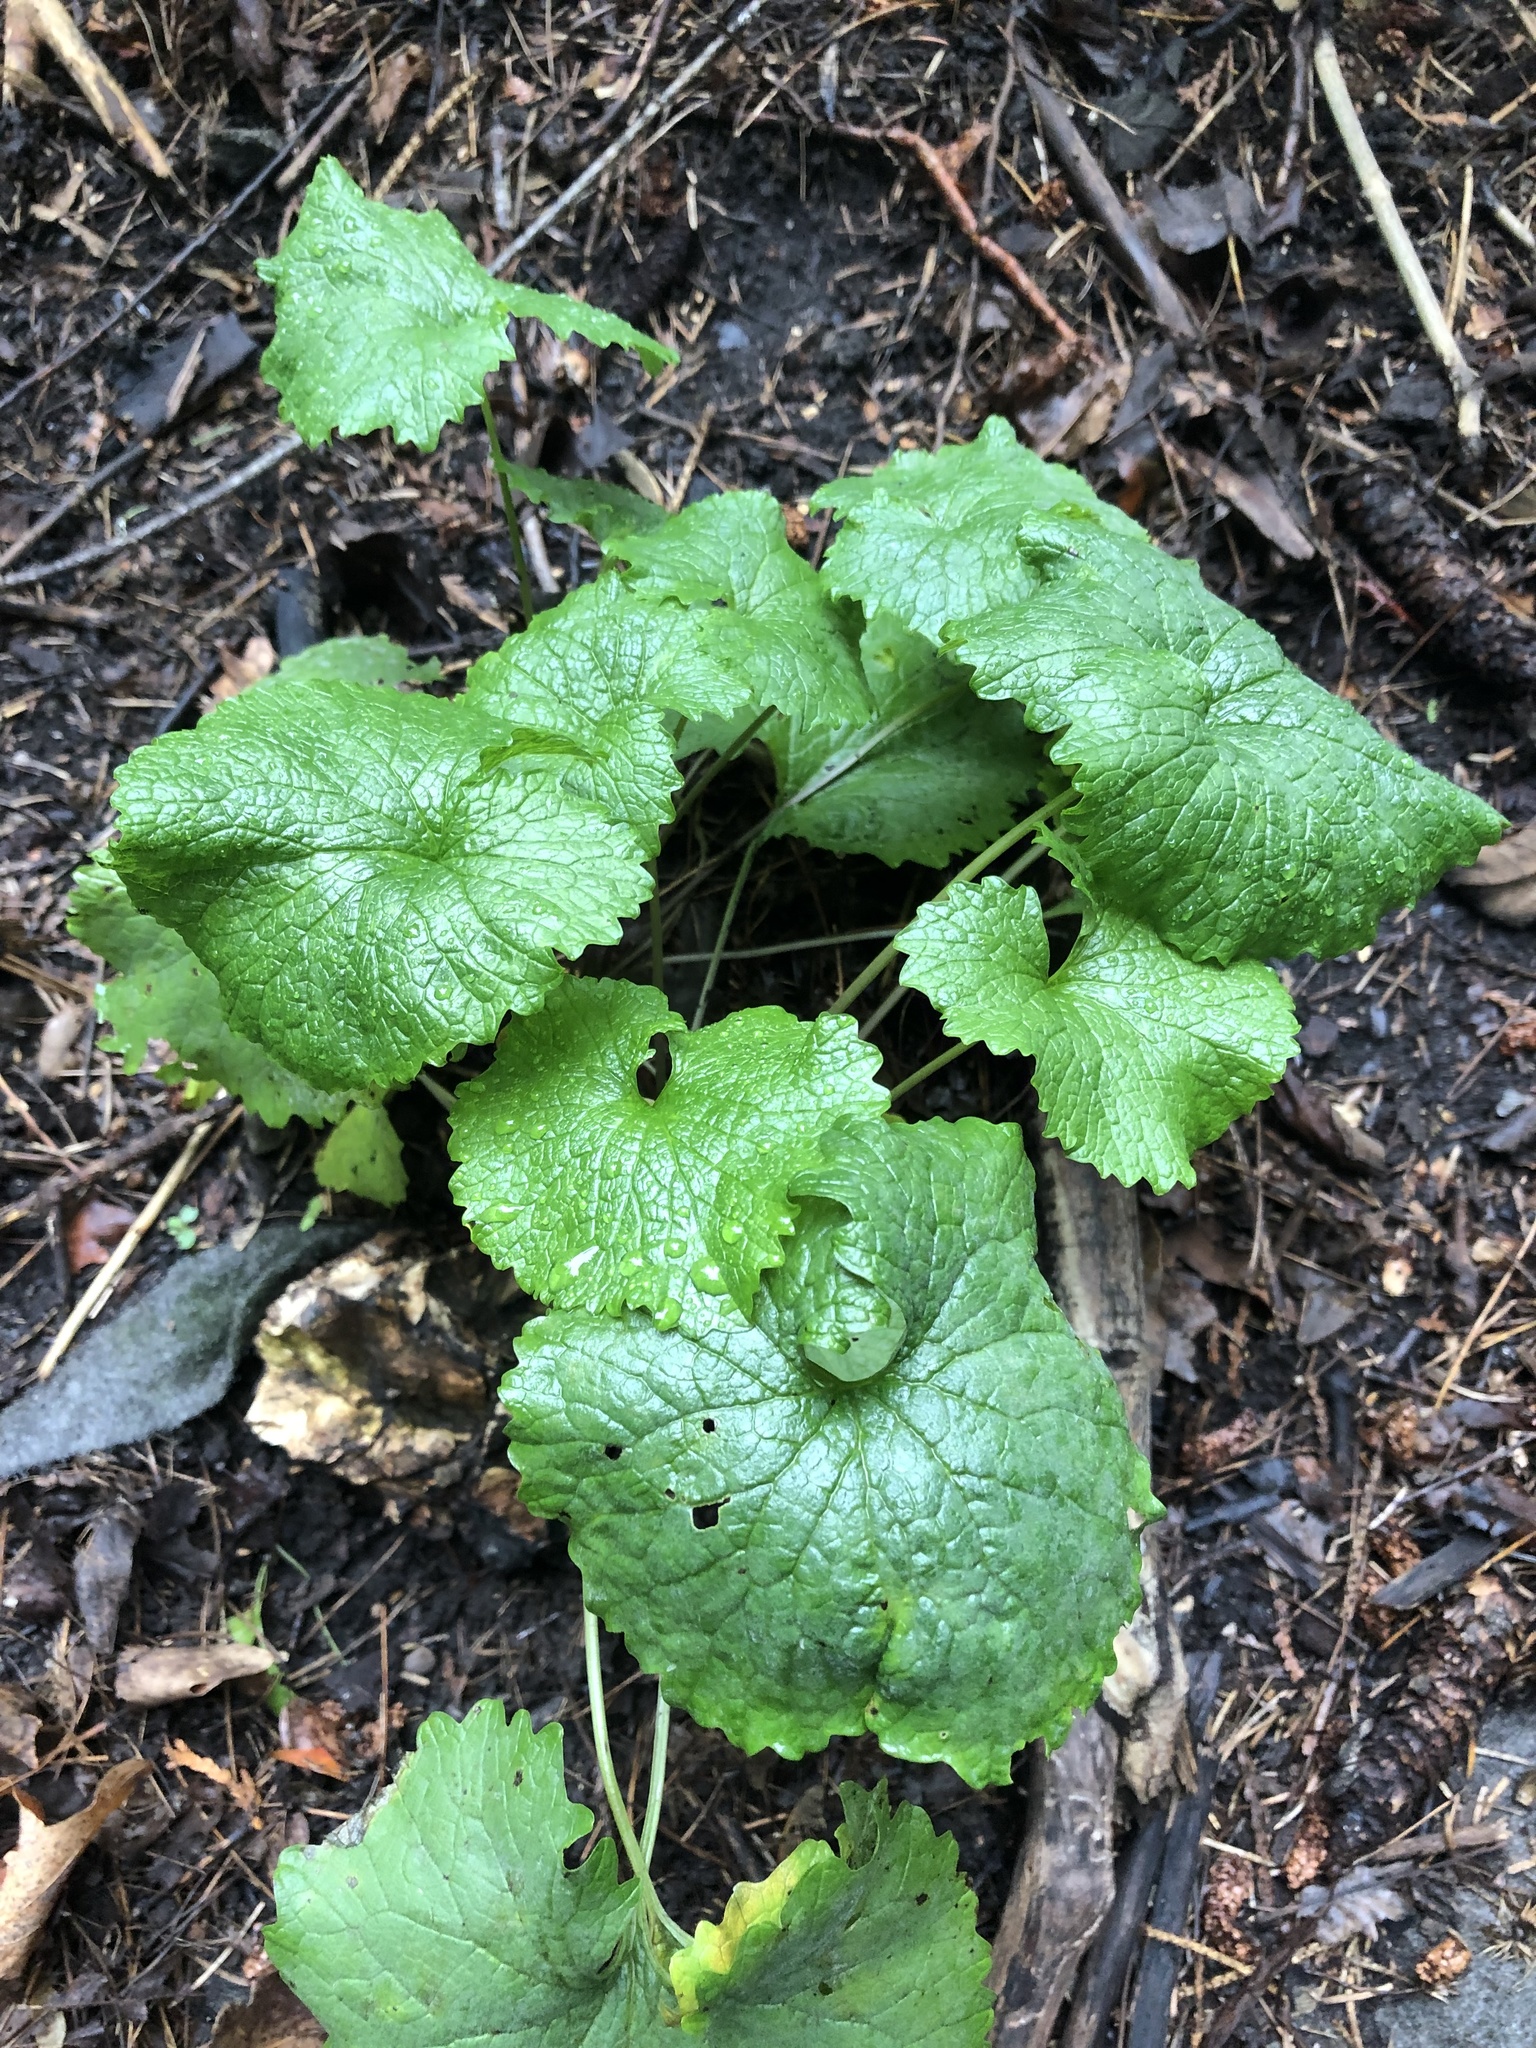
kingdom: Plantae
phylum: Tracheophyta
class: Magnoliopsida
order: Brassicales
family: Brassicaceae
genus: Alliaria
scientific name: Alliaria petiolata
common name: Garlic mustard
